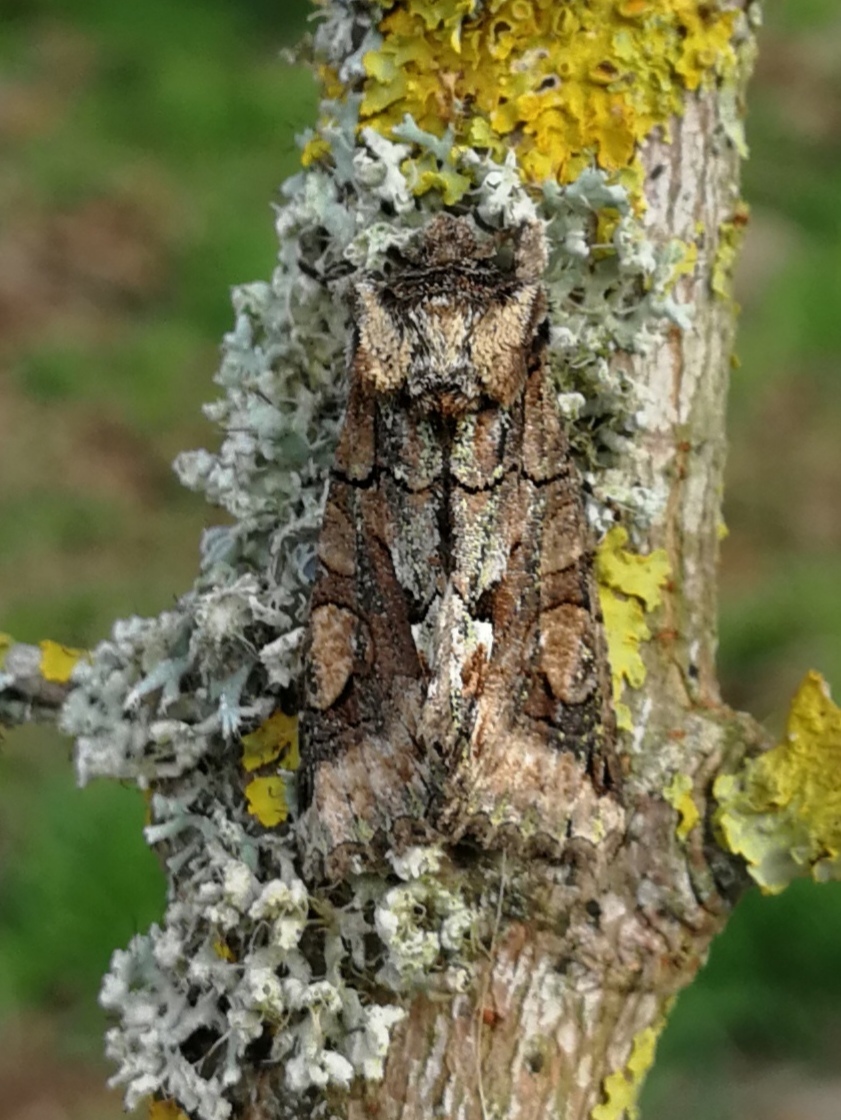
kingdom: Animalia
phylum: Arthropoda
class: Insecta
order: Lepidoptera
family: Noctuidae
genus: Allophyes
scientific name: Allophyes alfaroi
